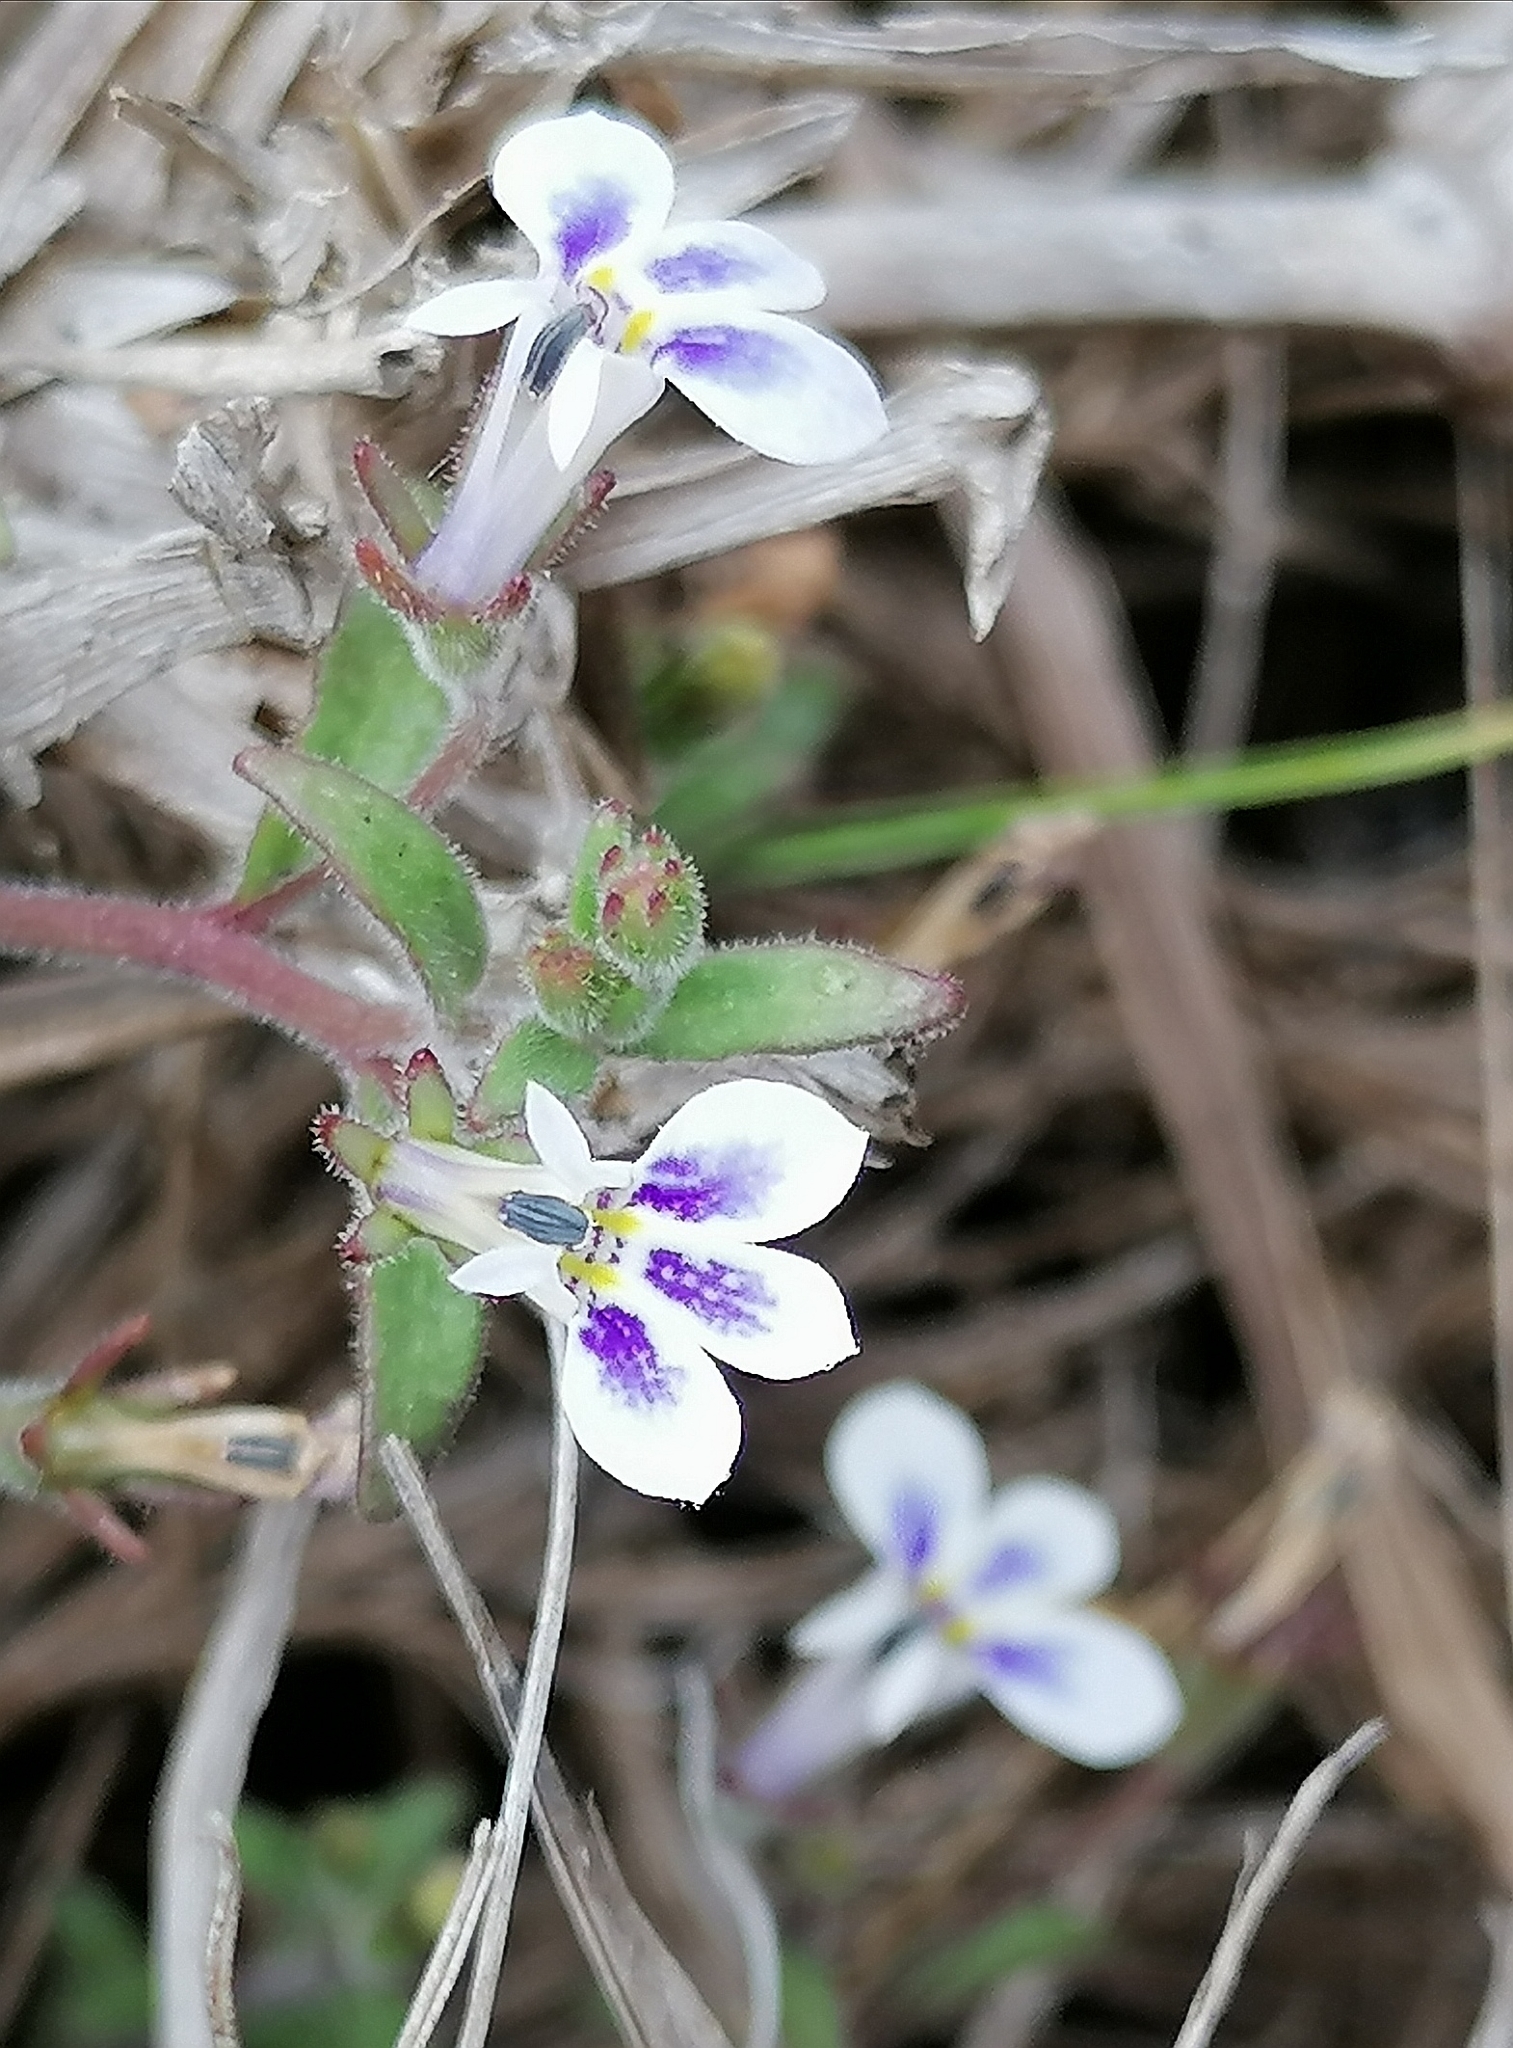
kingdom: Plantae
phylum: Tracheophyta
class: Magnoliopsida
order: Asterales
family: Campanulaceae
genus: Lobelia
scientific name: Lobelia boivinii
